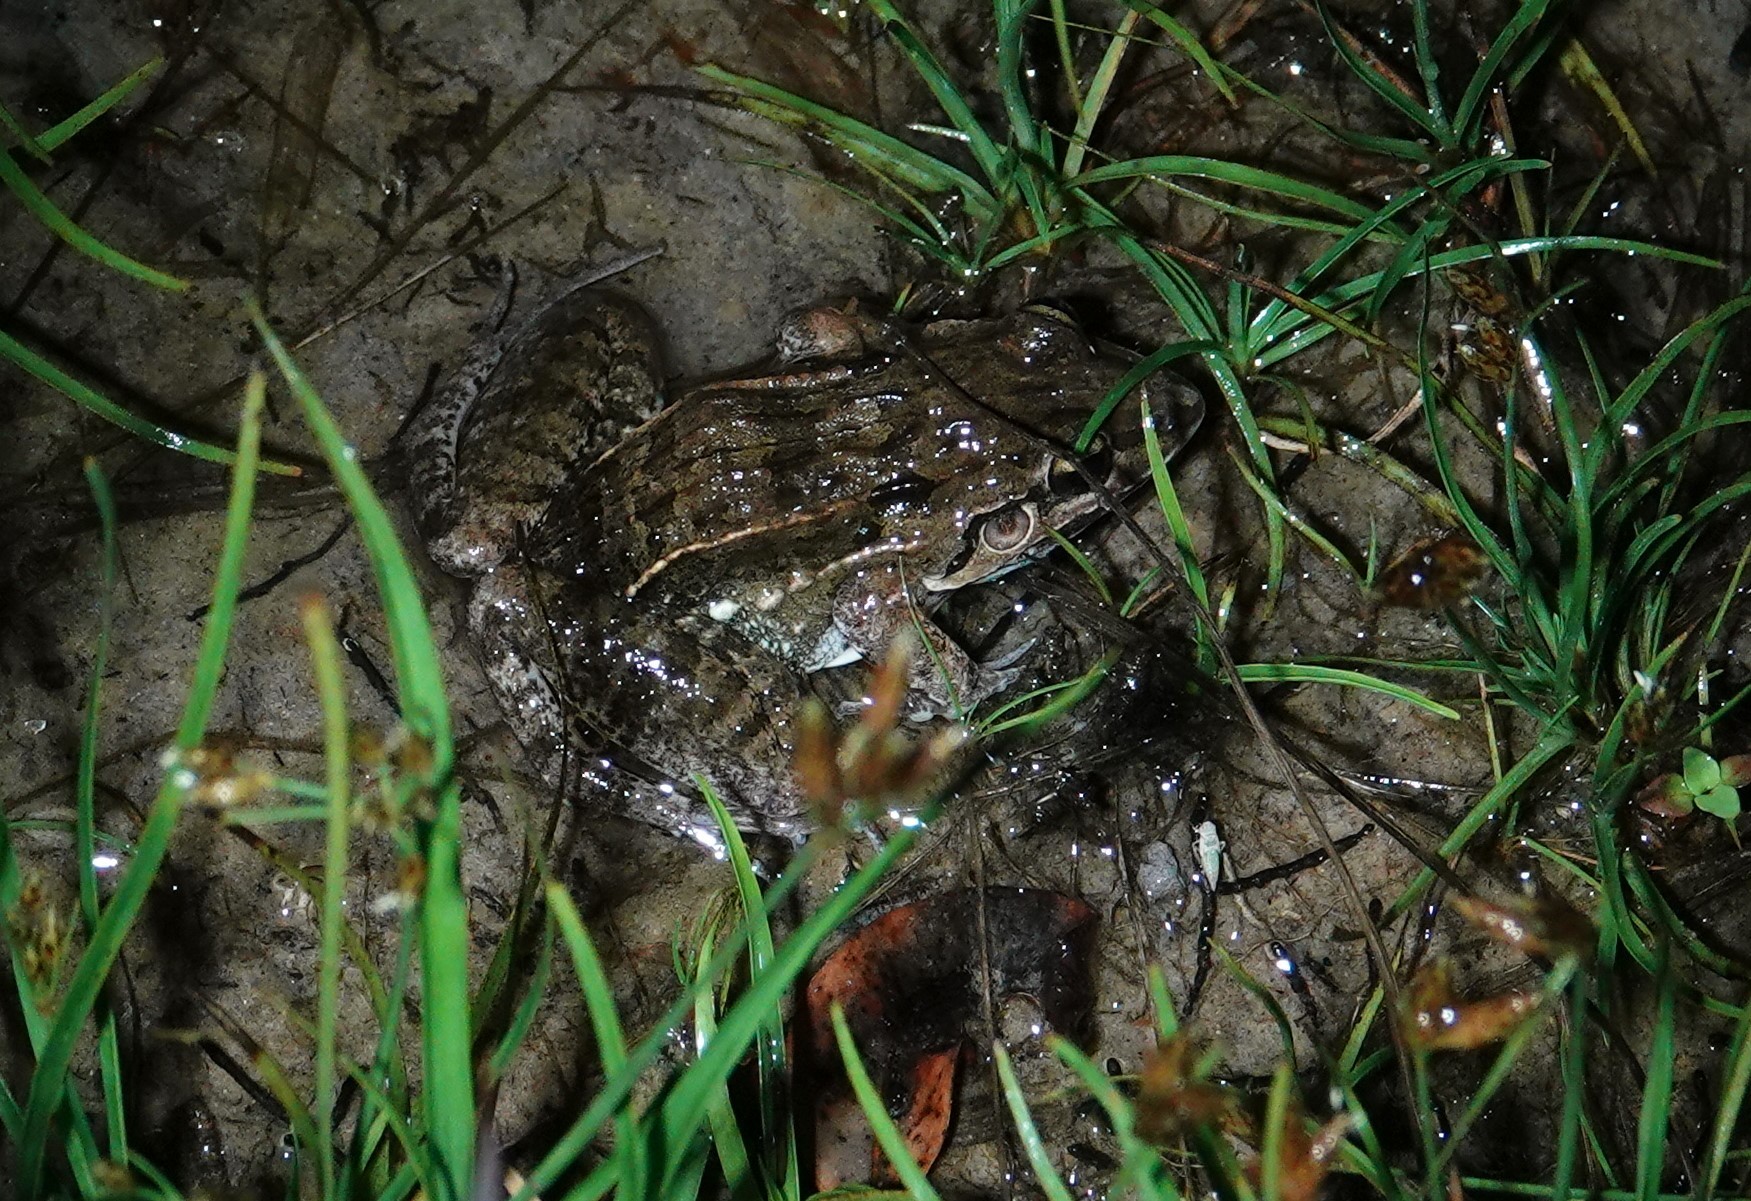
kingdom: Animalia
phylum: Chordata
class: Amphibia
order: Anura
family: Leptodactylidae
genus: Leptodactylus
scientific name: Leptodactylus fuscus
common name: Rufous frog
